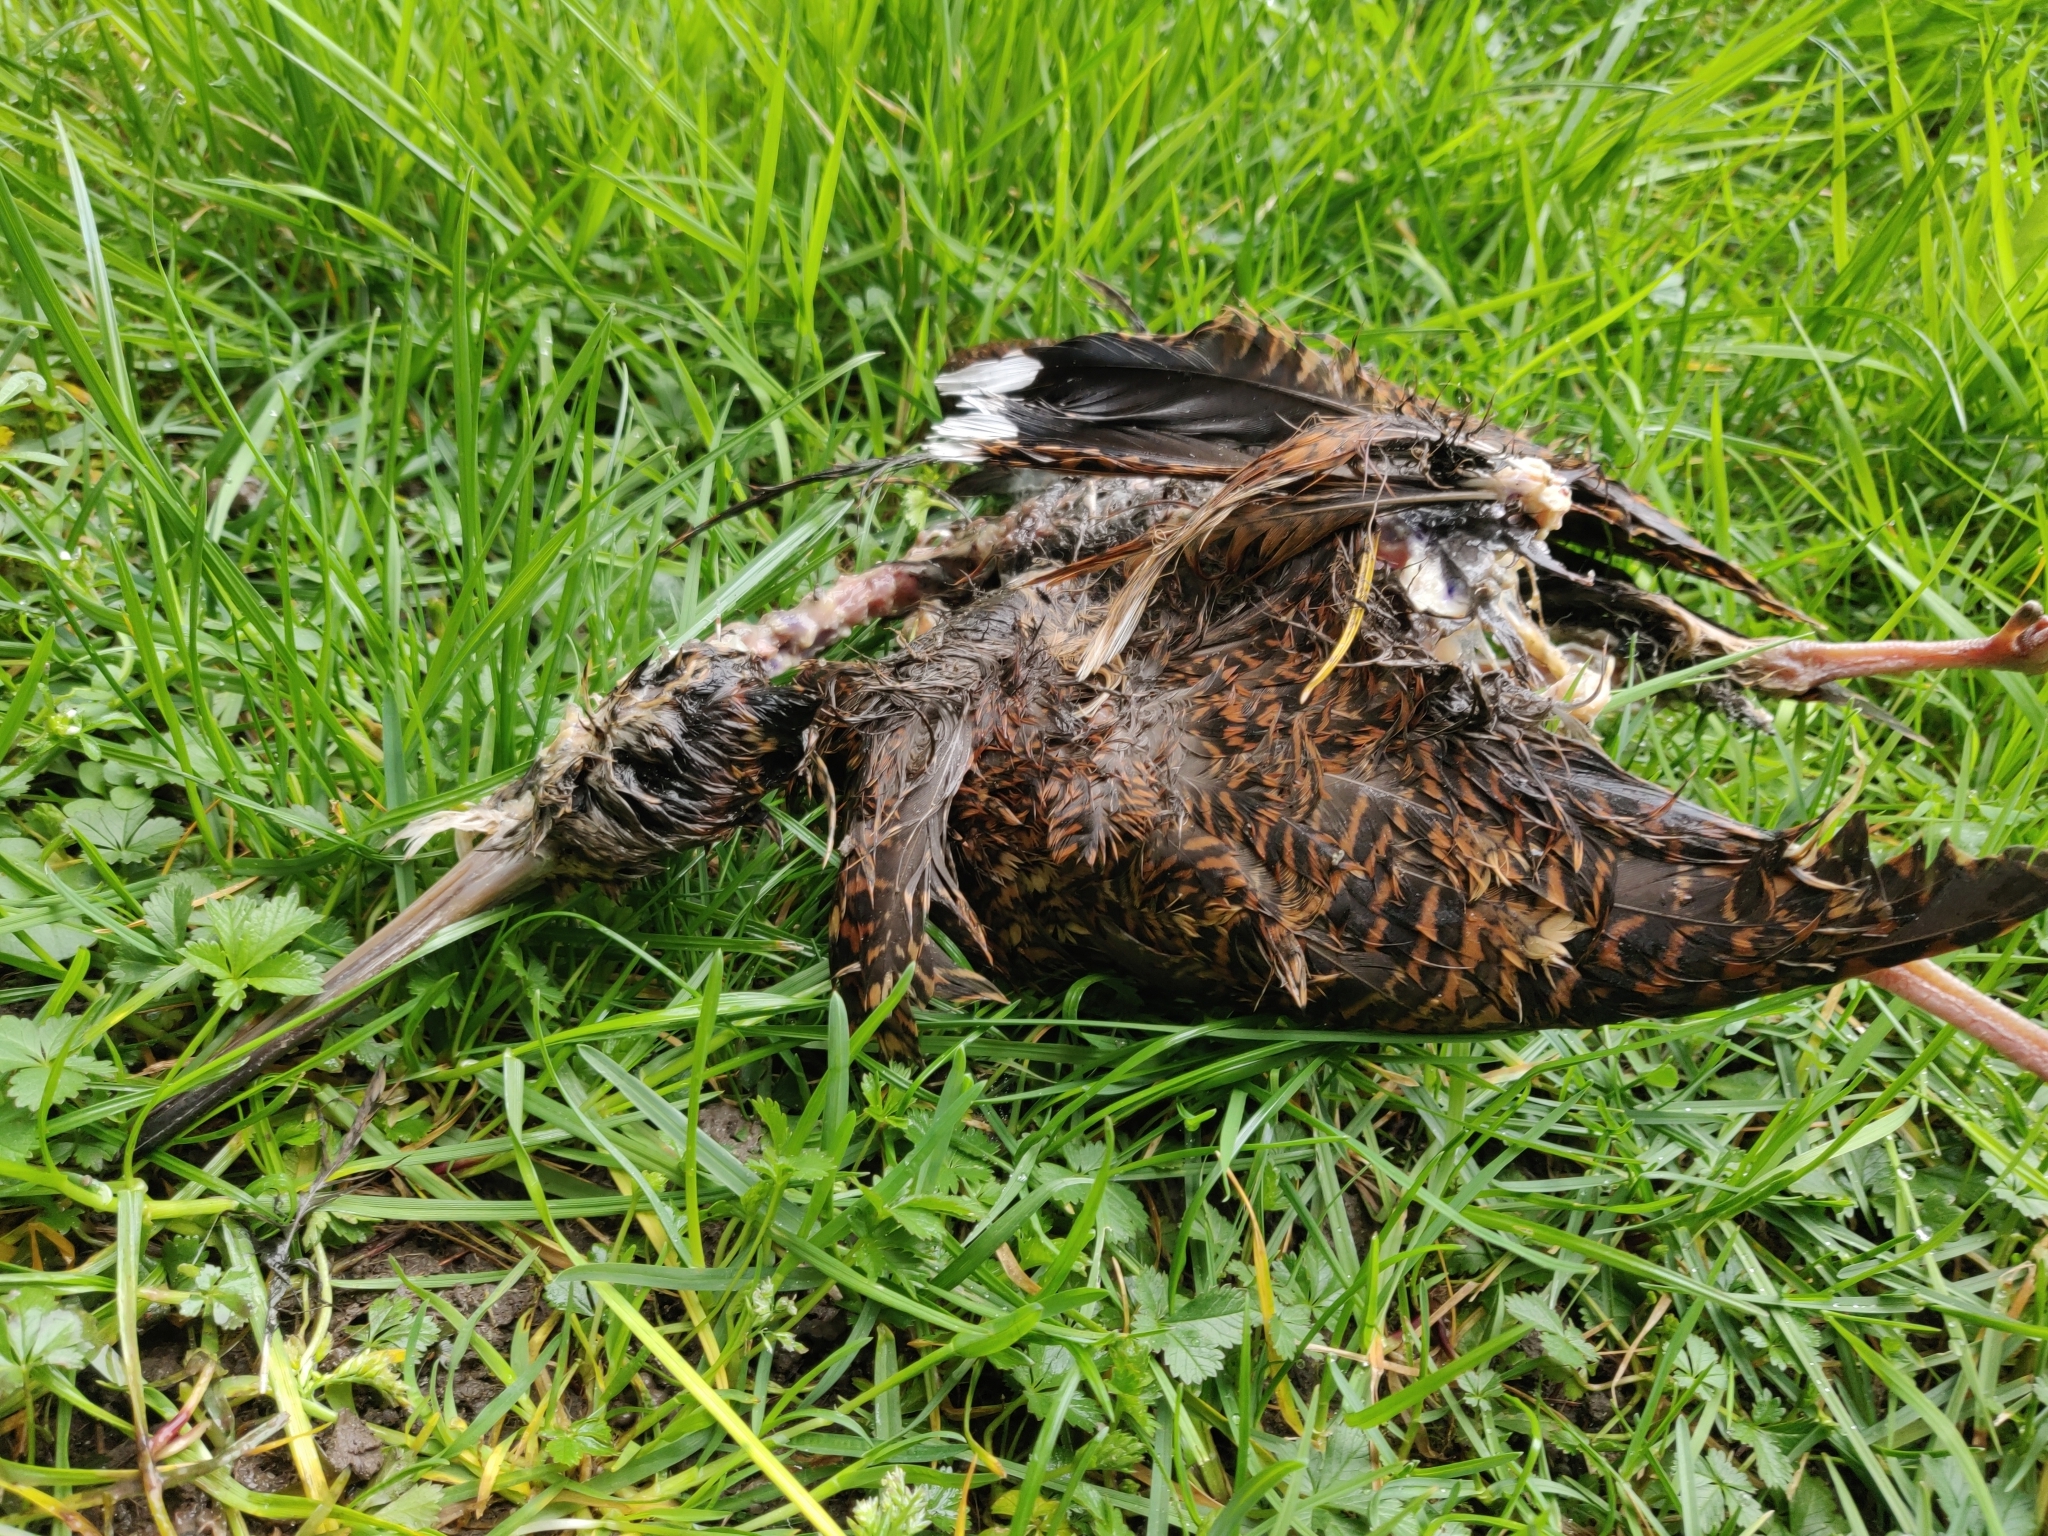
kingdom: Animalia
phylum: Chordata
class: Aves
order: Charadriiformes
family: Scolopacidae
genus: Scolopax
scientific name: Scolopax rusticola
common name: Eurasian woodcock
